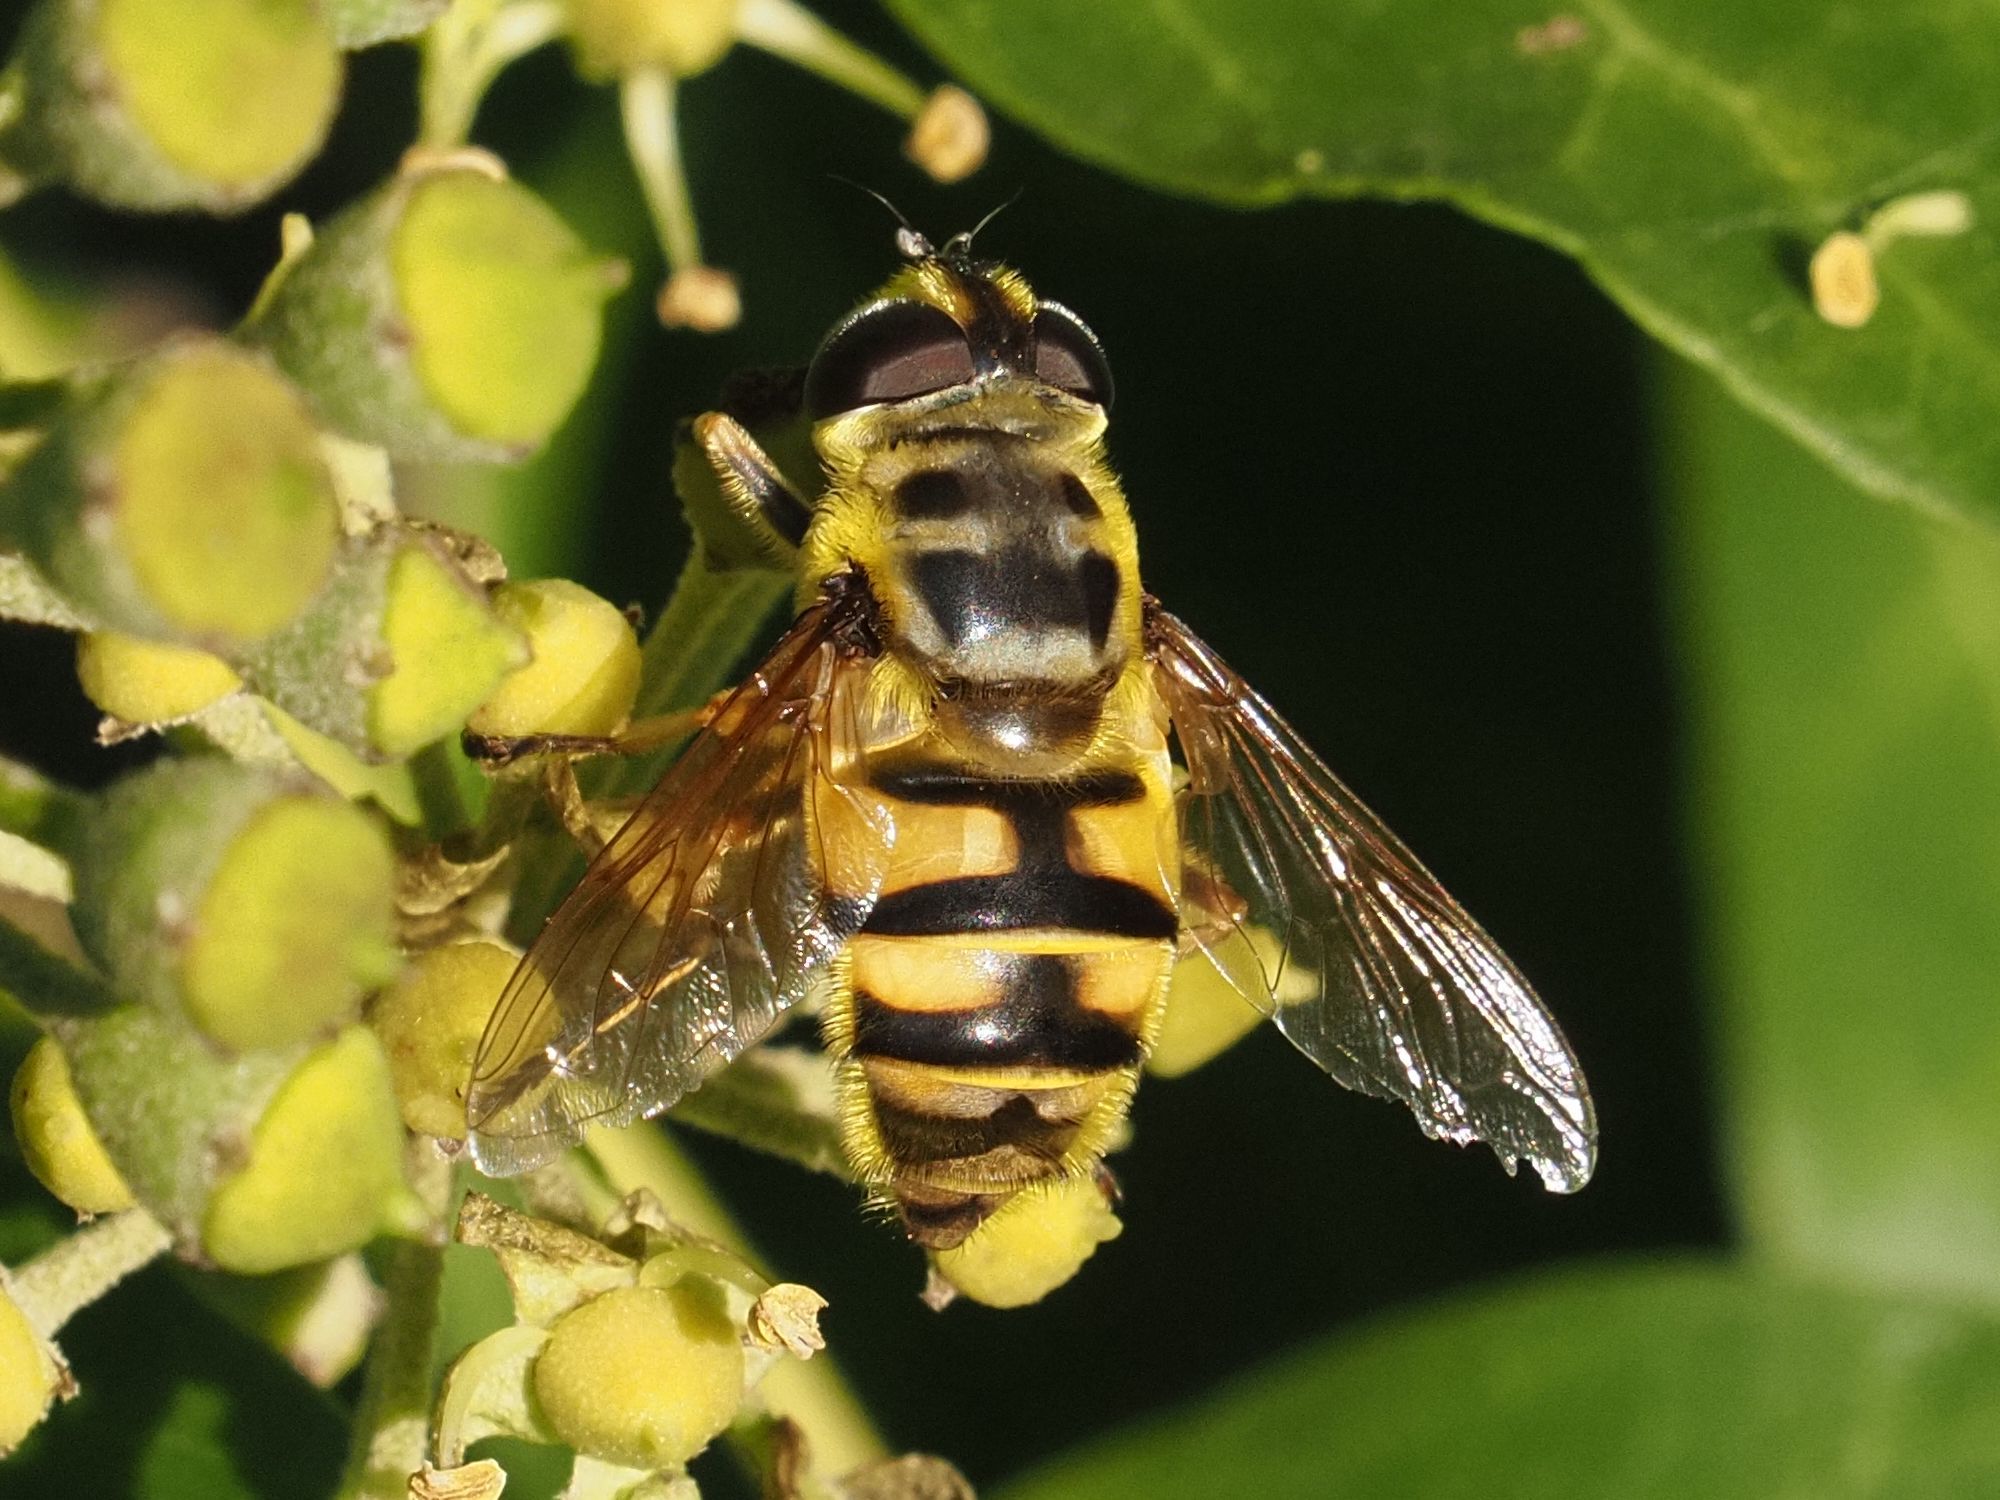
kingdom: Animalia
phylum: Arthropoda
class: Insecta
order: Diptera
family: Syrphidae
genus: Myathropa
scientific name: Myathropa florea
